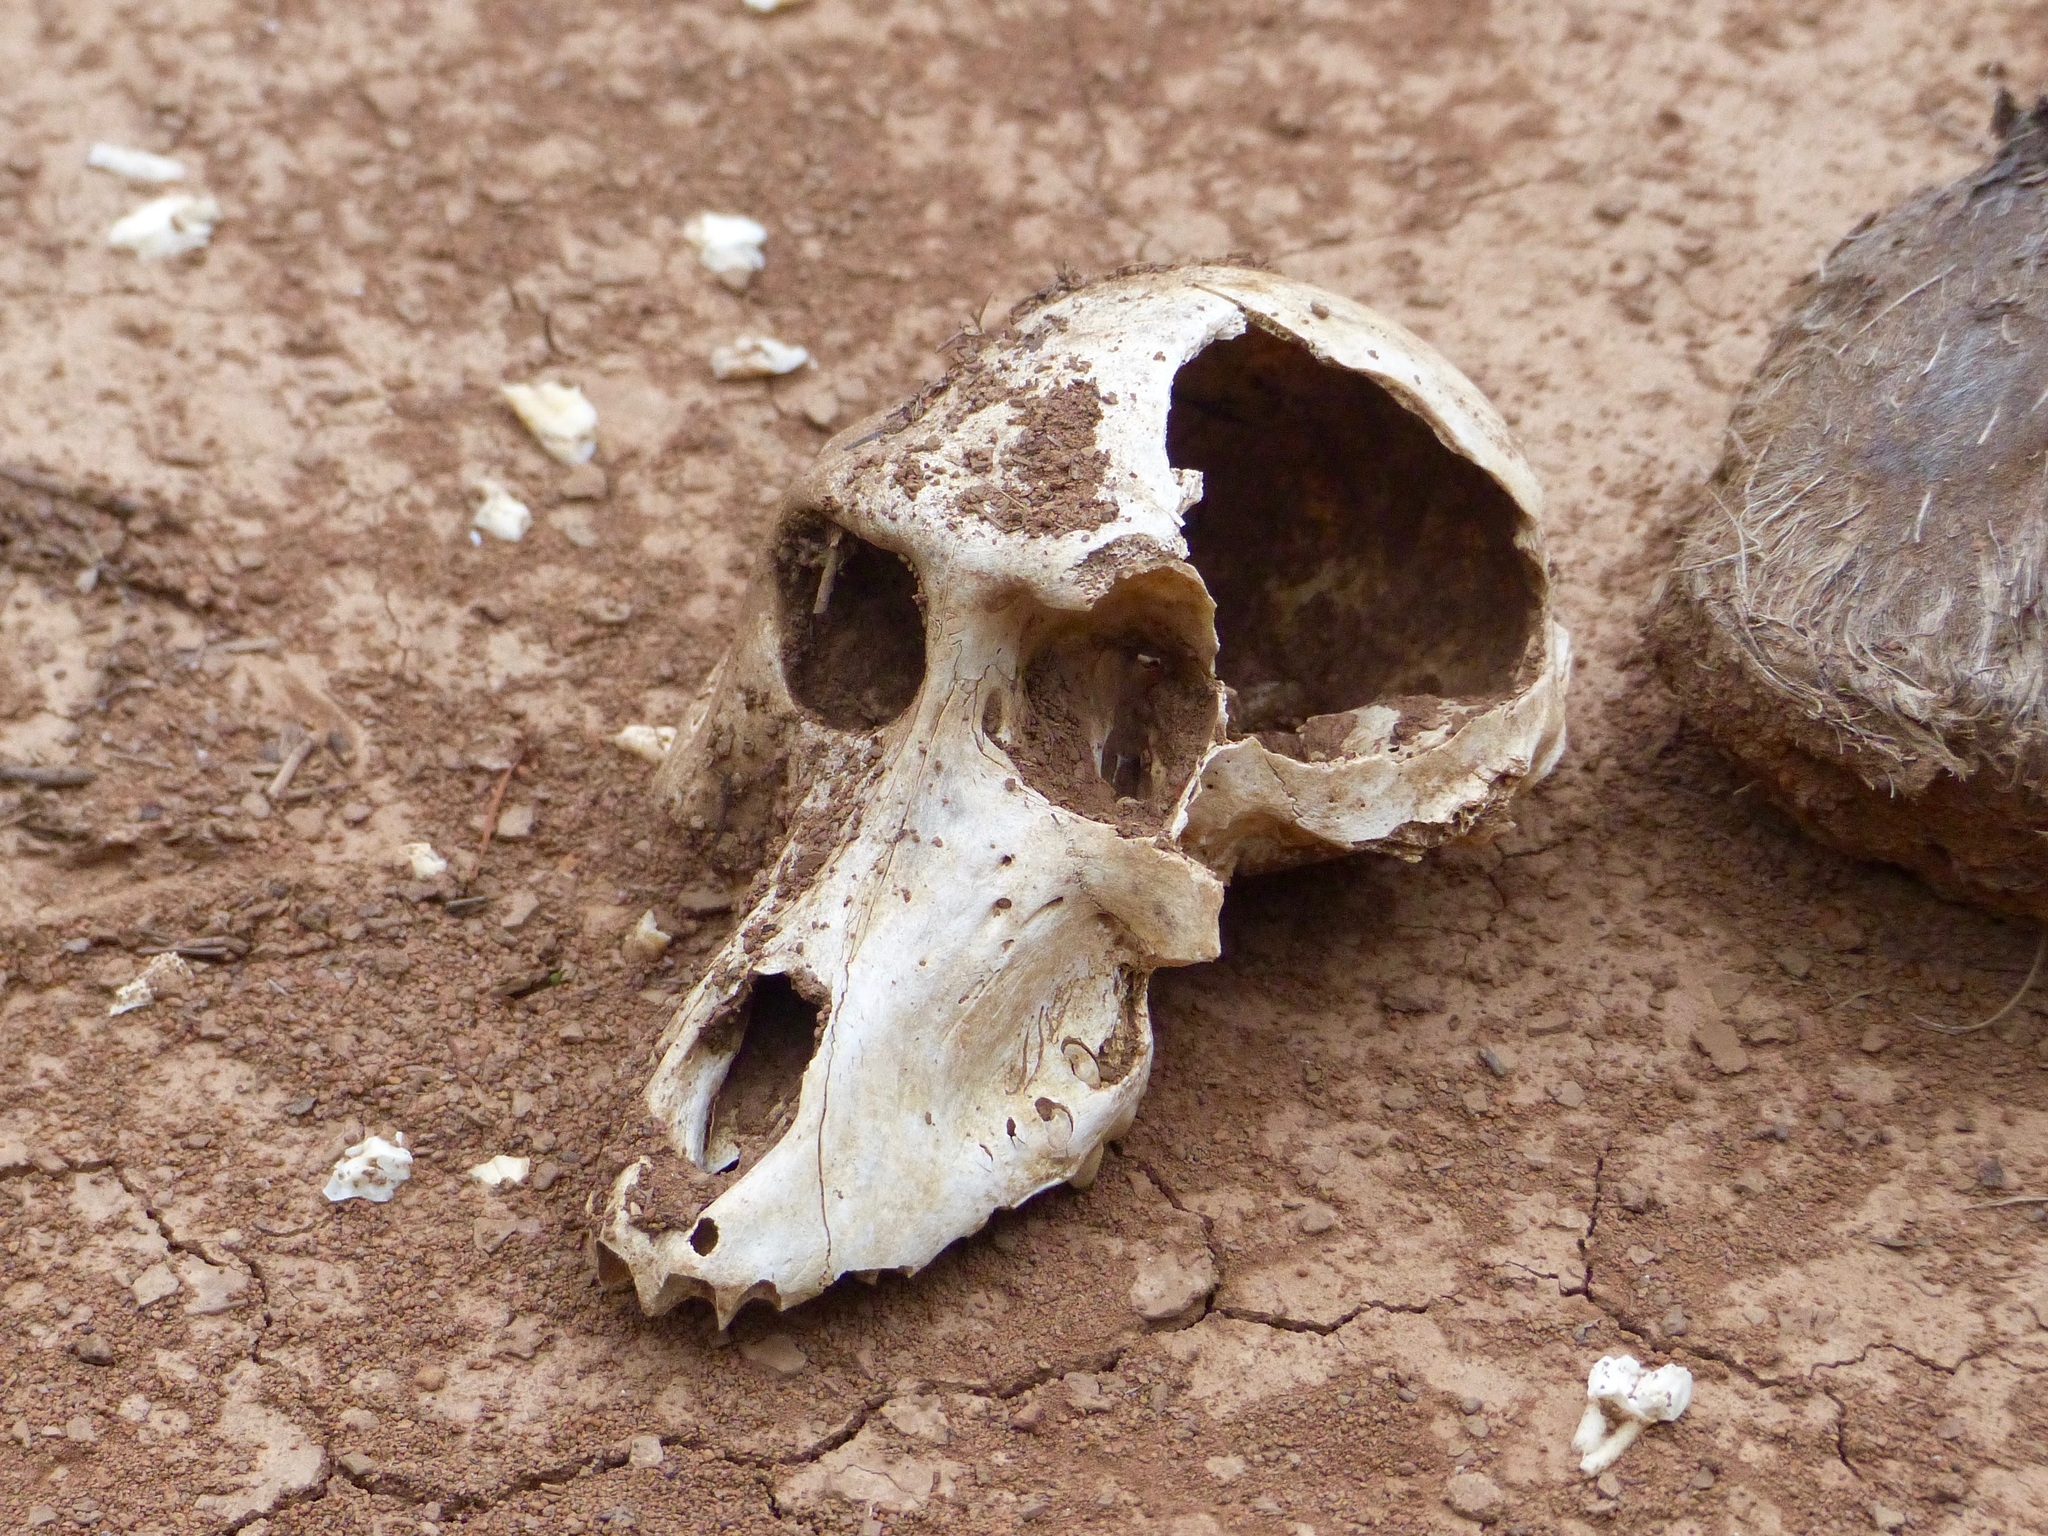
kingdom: Animalia
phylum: Chordata
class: Mammalia
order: Primates
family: Cercopithecidae
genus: Papio
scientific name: Papio papio
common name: Guinea baboon
